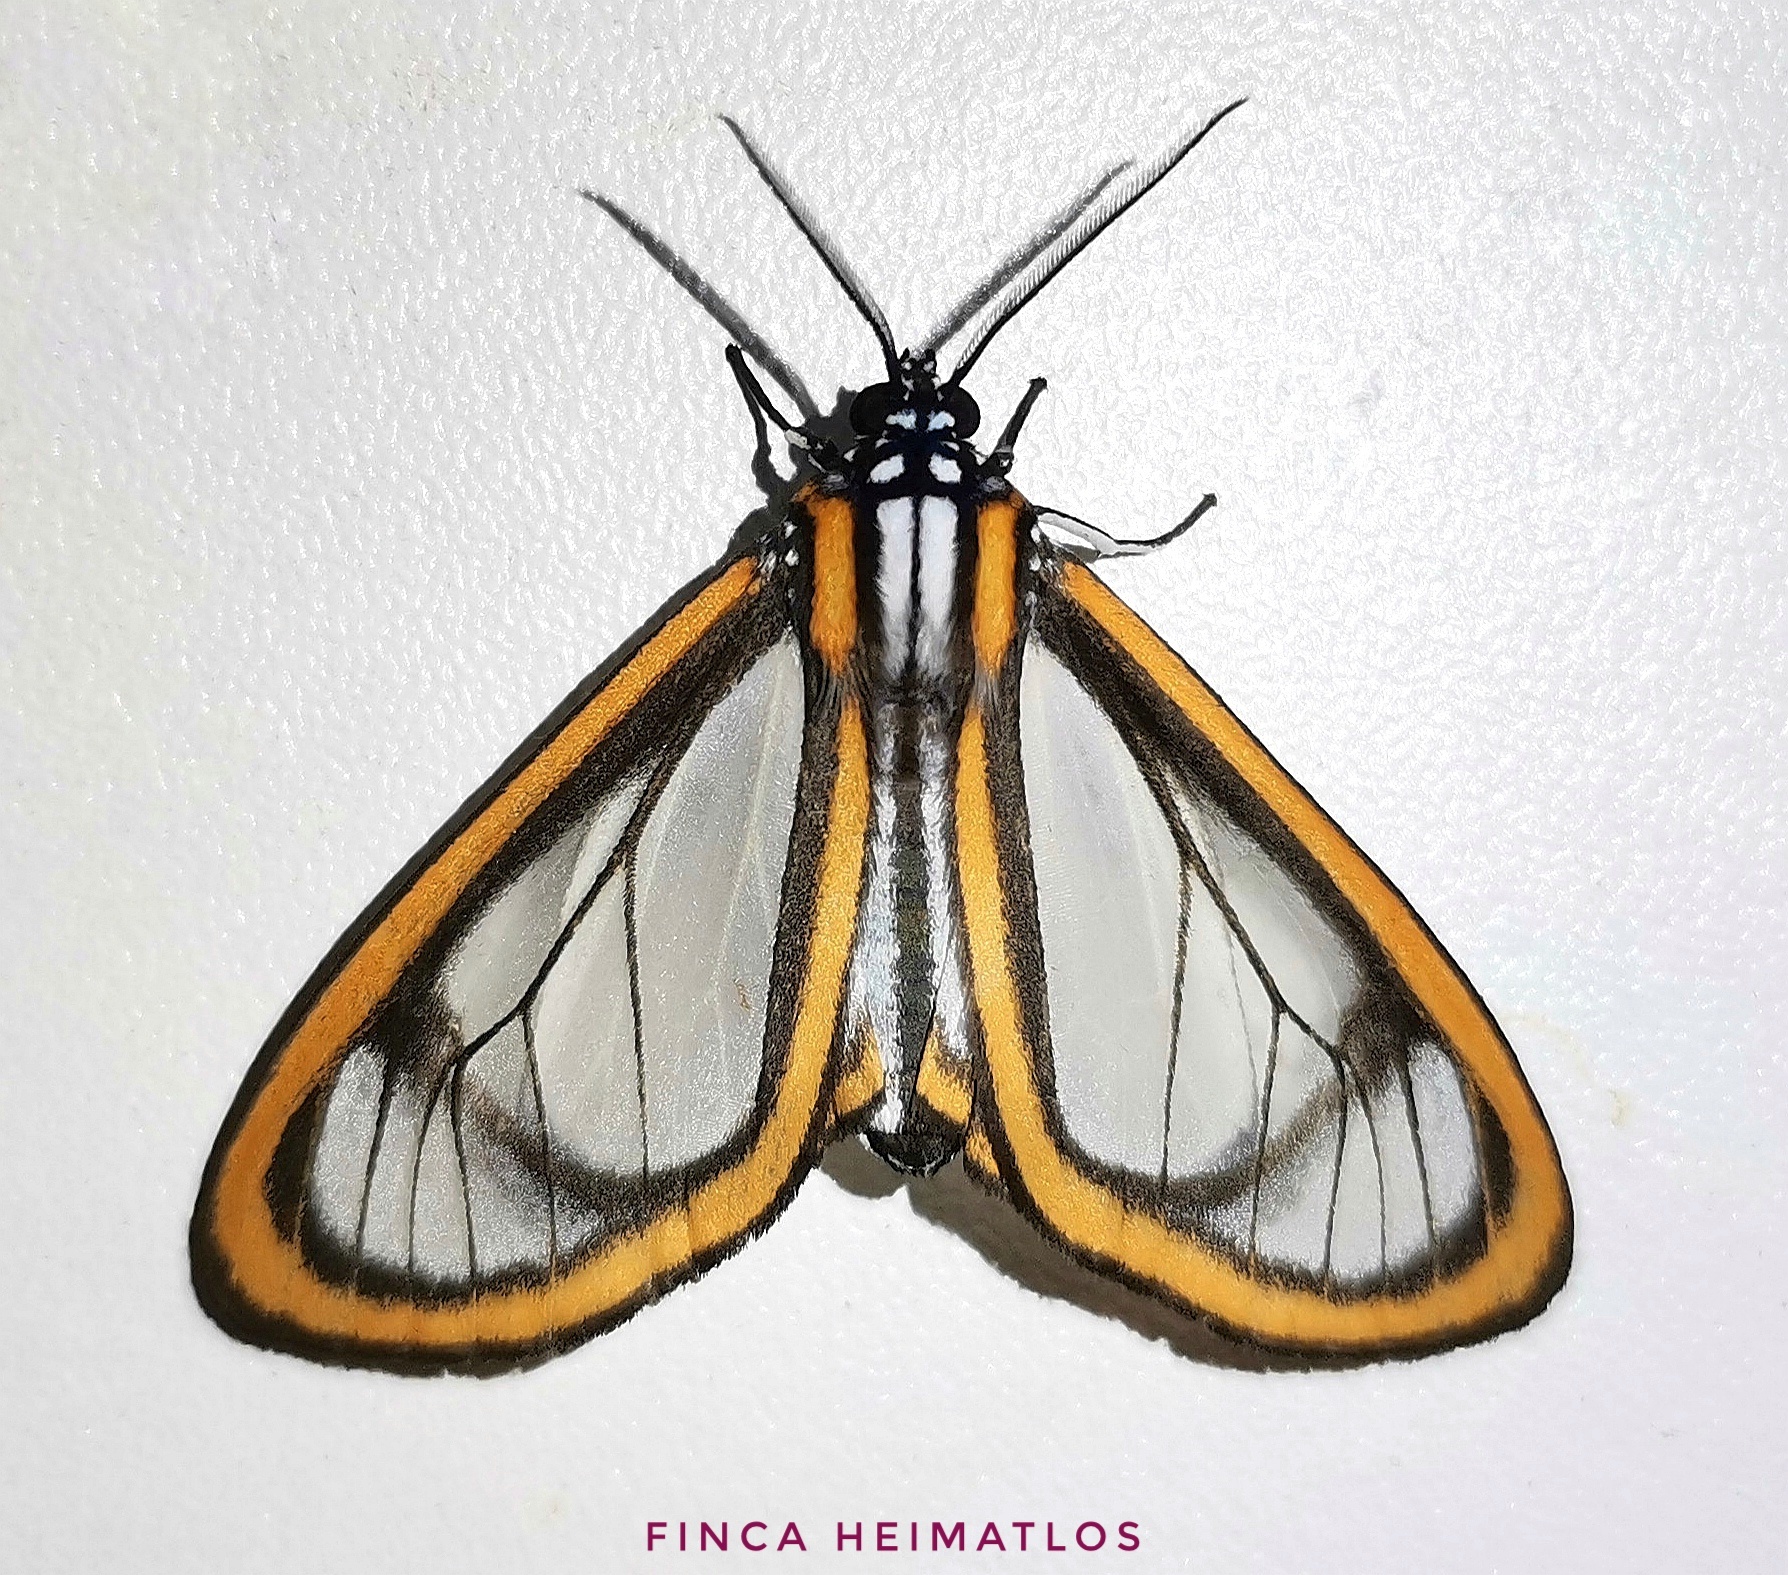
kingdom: Animalia
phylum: Arthropoda
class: Insecta
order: Lepidoptera
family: Erebidae
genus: Hyalurga
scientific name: Hyalurga noguei
